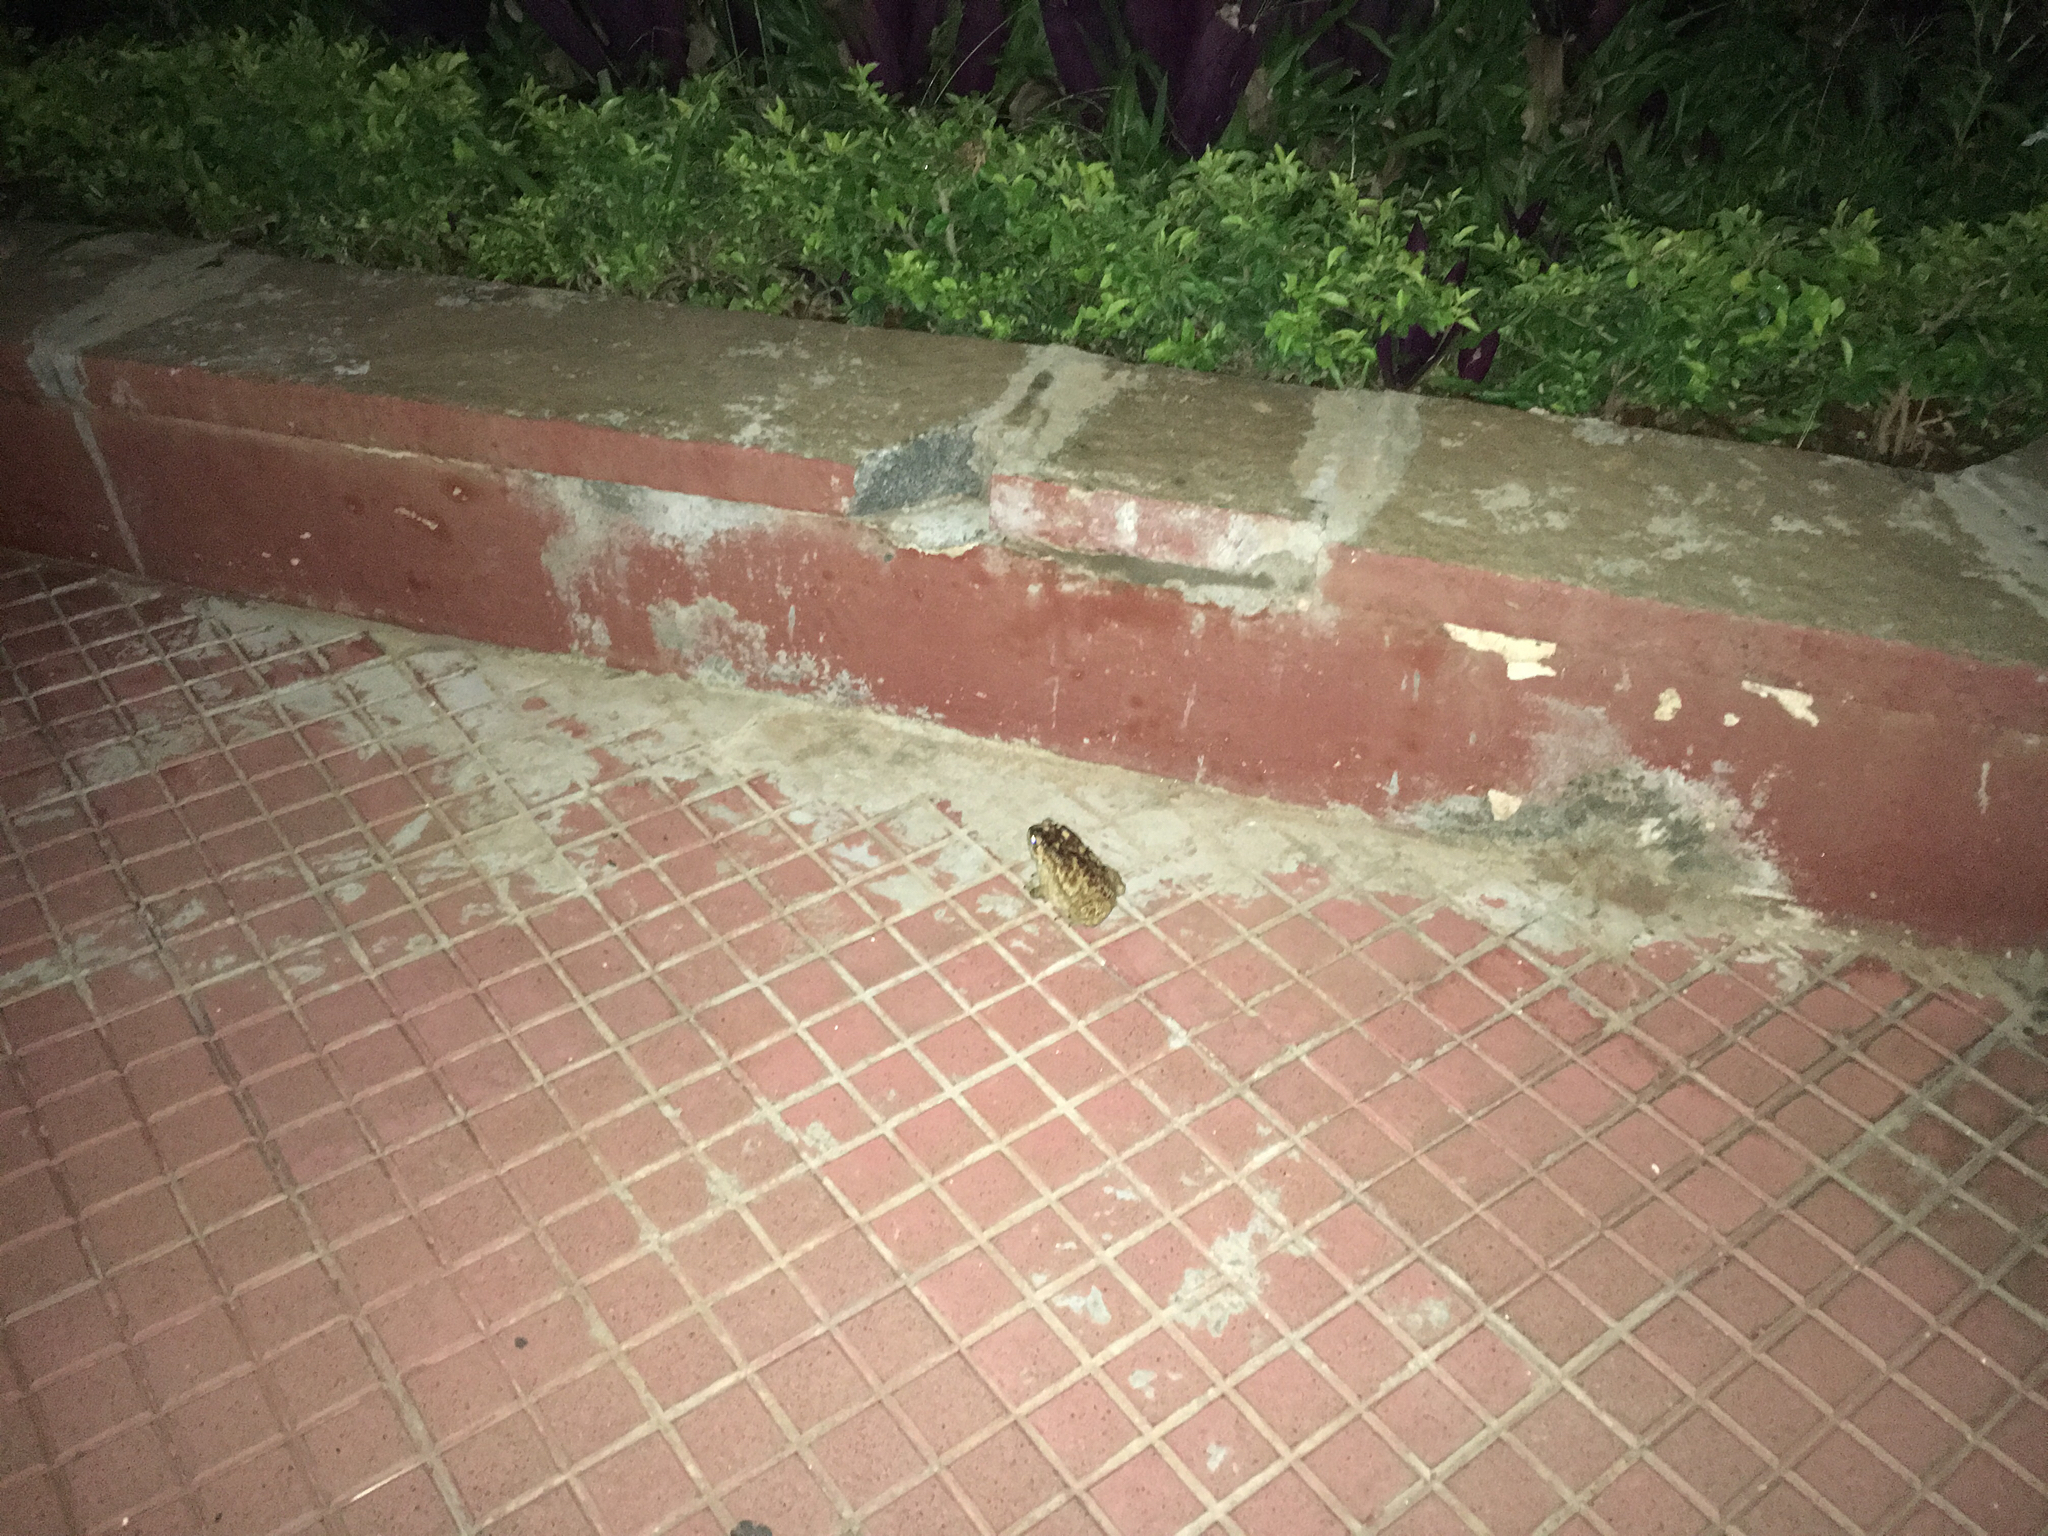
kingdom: Animalia
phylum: Chordata
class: Amphibia
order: Anura
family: Bufonidae
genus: Duttaphrynus
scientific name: Duttaphrynus melanostictus
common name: Common sunda toad
